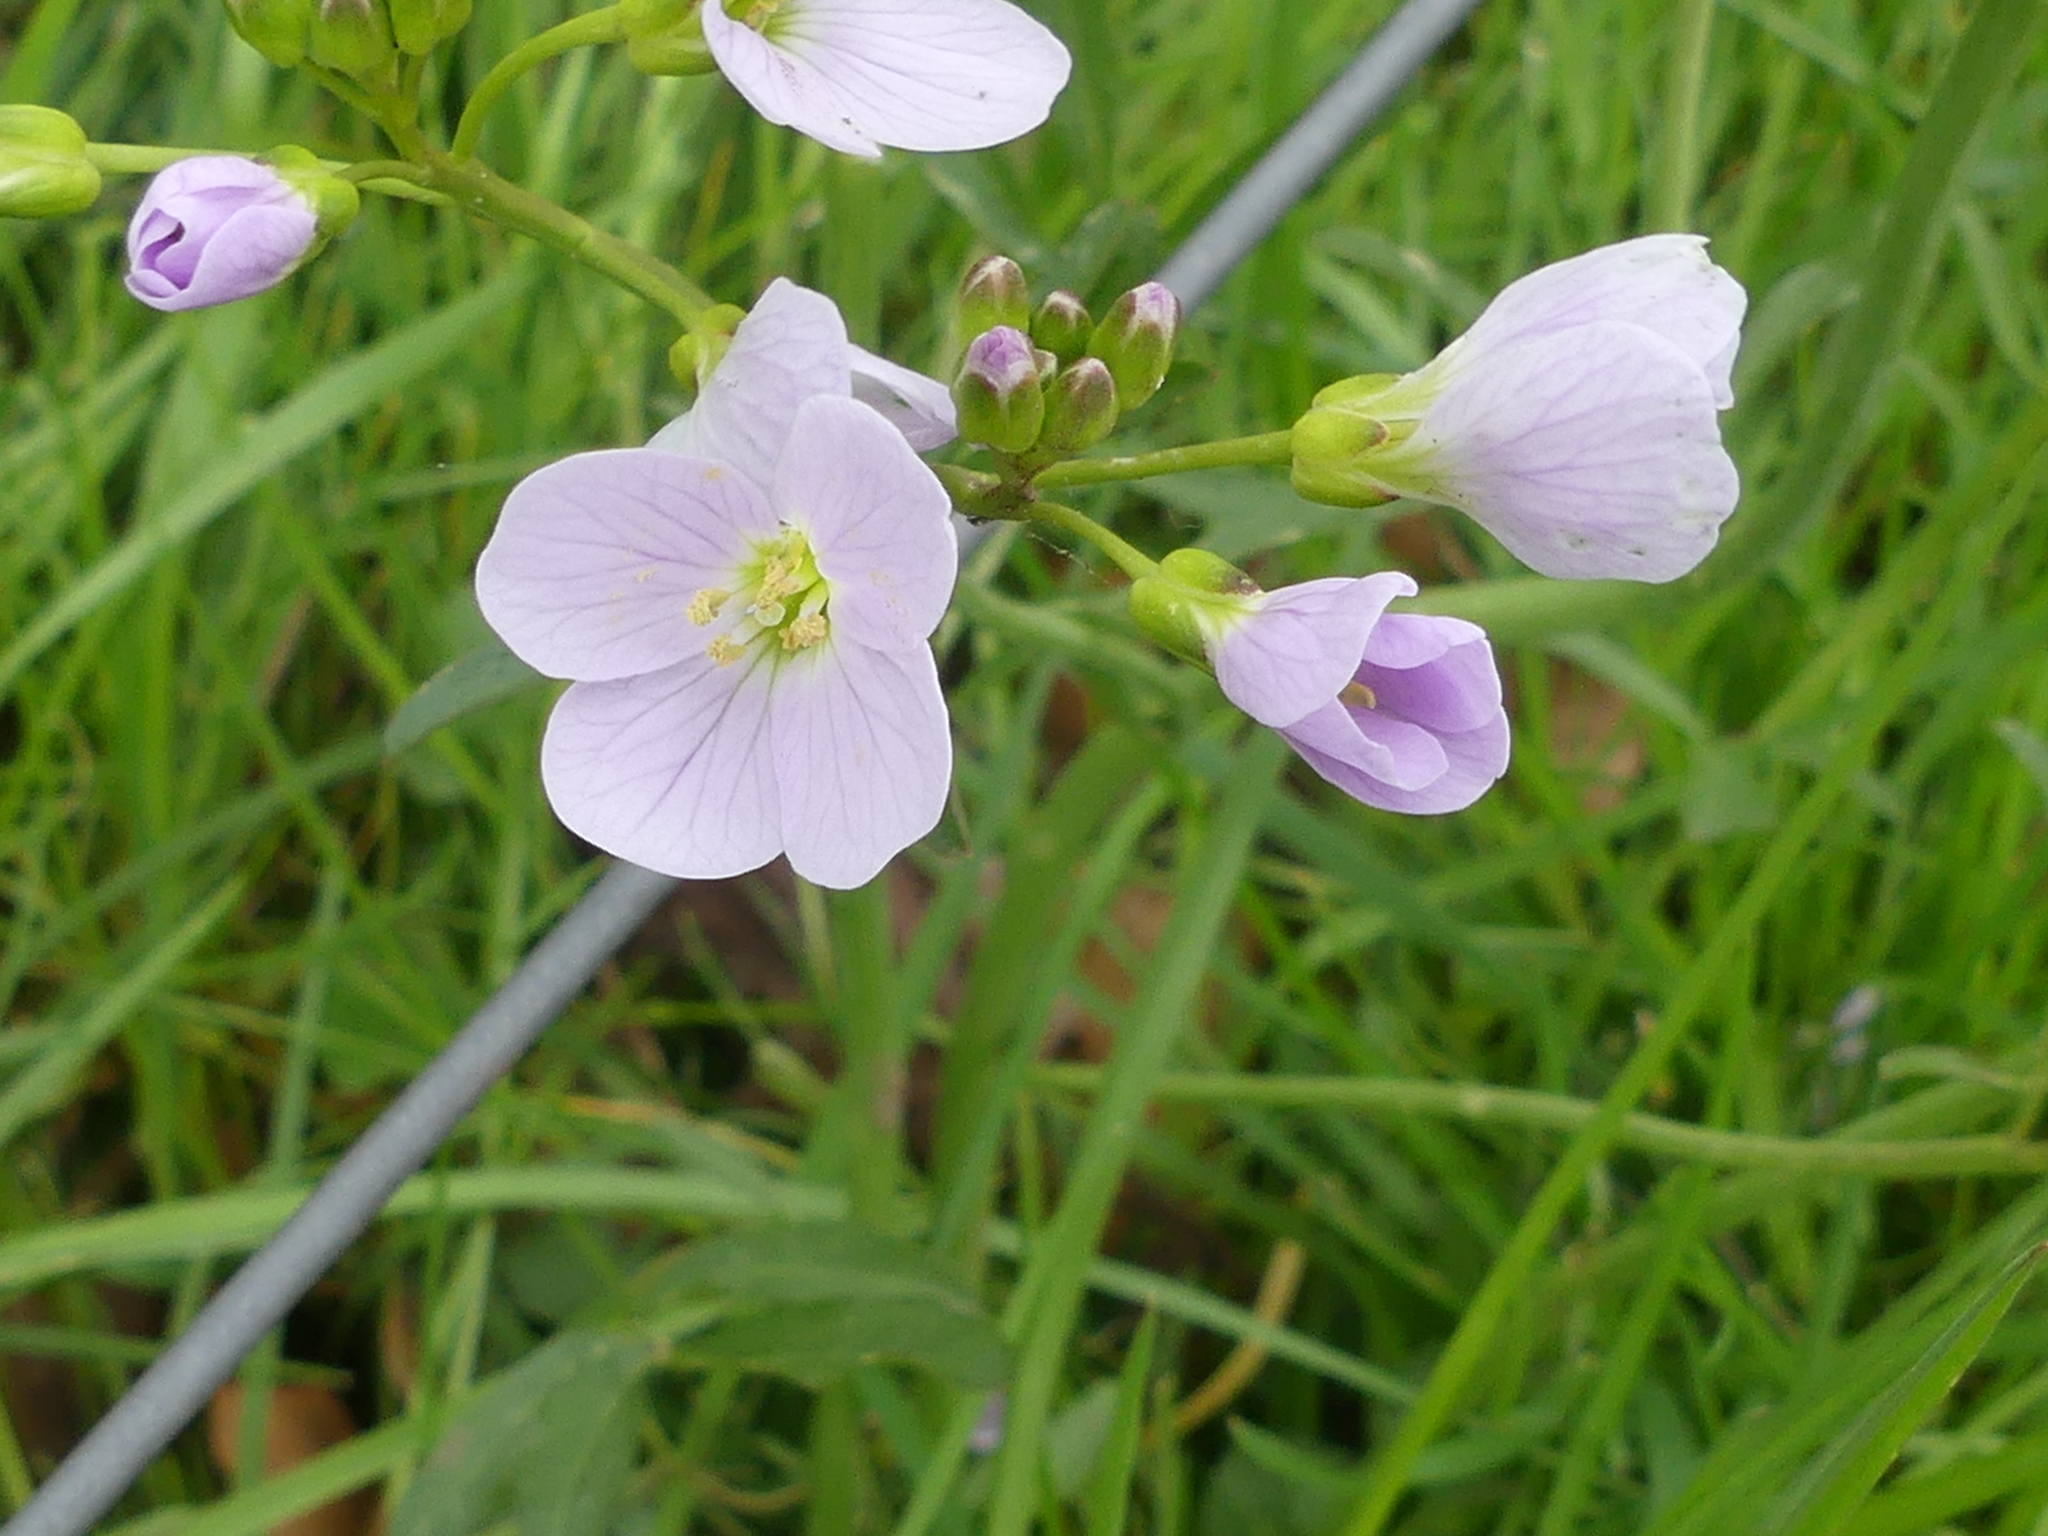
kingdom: Plantae
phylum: Tracheophyta
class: Magnoliopsida
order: Brassicales
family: Brassicaceae
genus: Cardamine
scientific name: Cardamine pratensis
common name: Cuckoo flower
